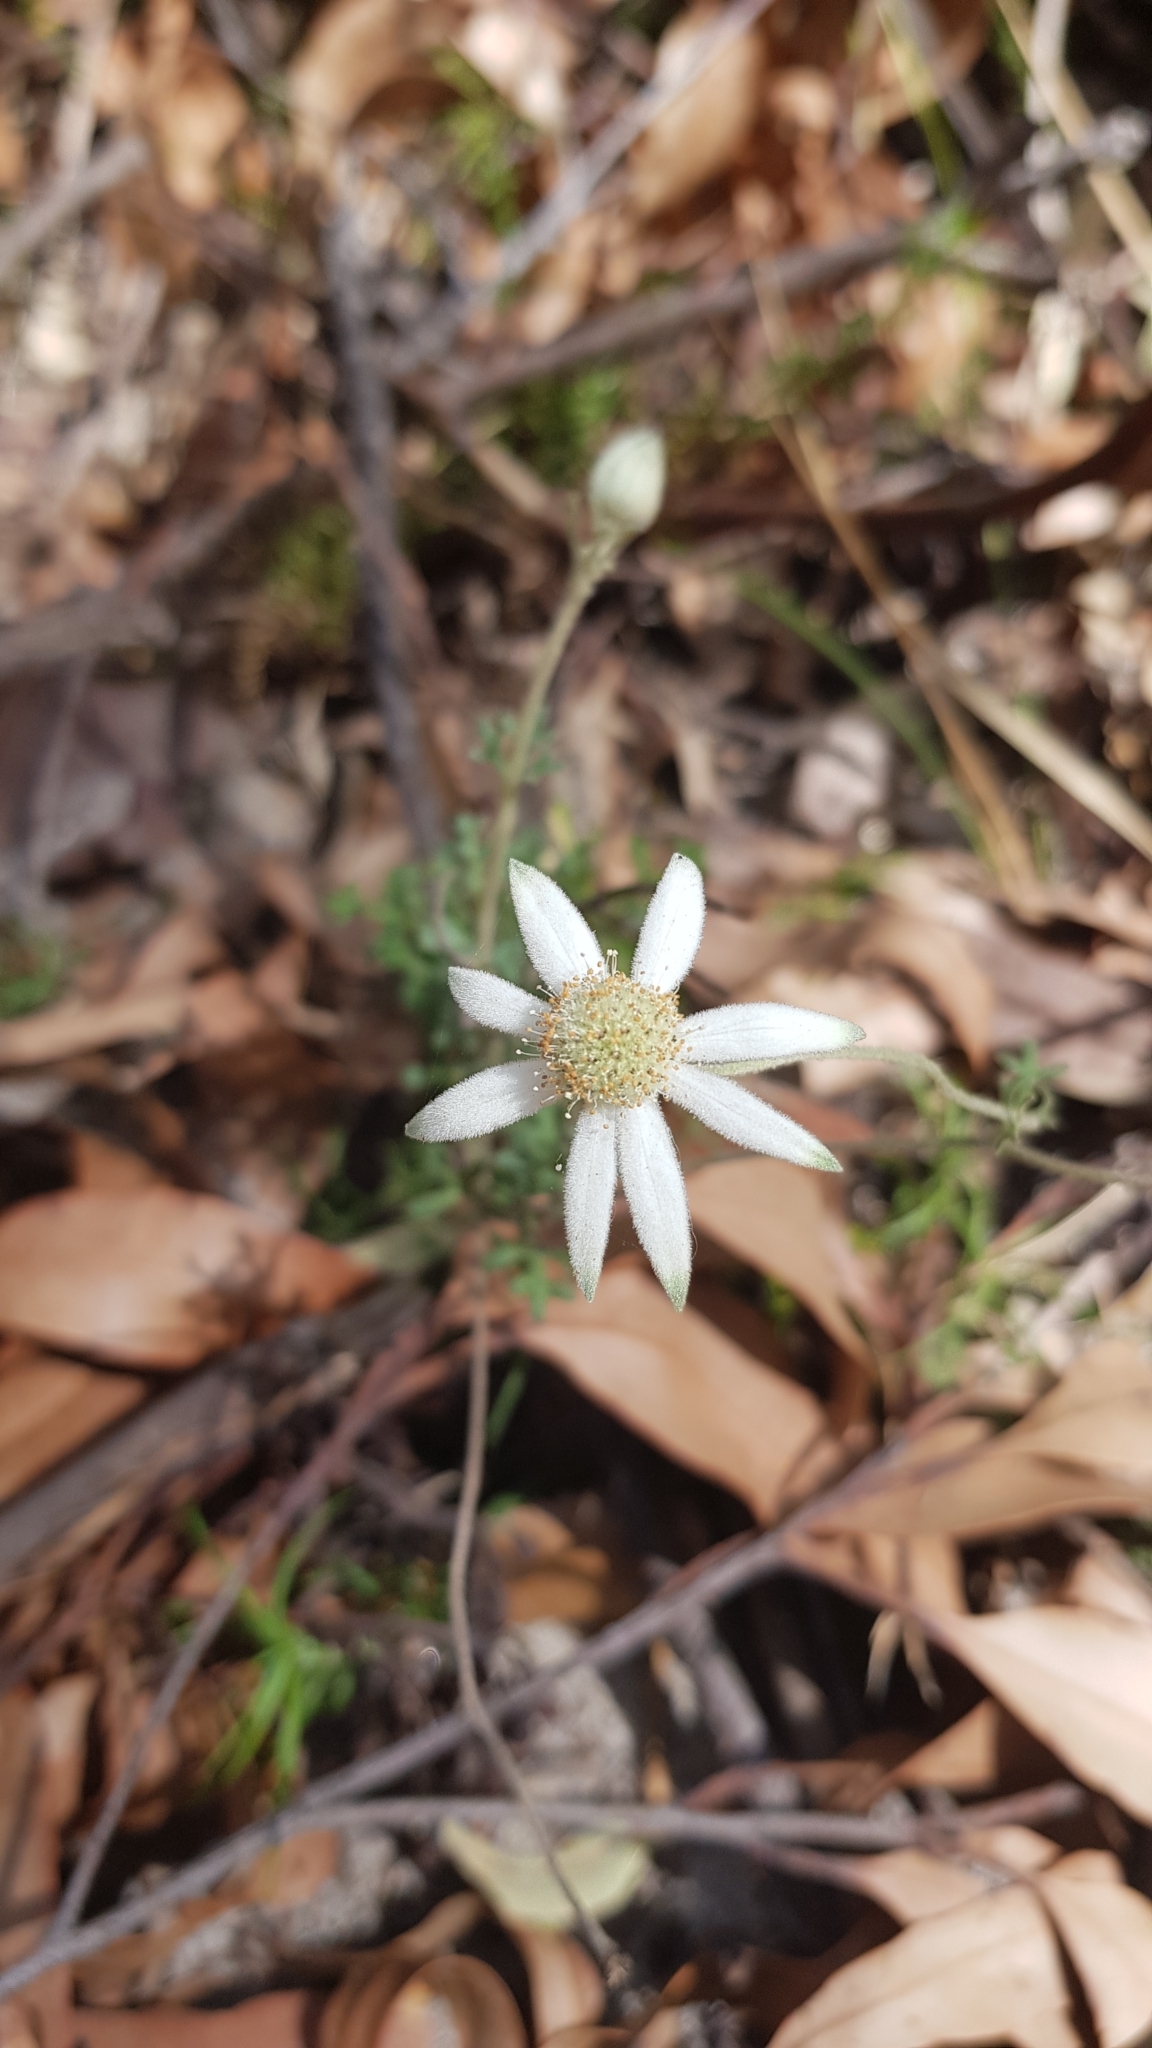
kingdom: Plantae
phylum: Tracheophyta
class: Magnoliopsida
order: Apiales
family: Apiaceae
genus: Actinotus
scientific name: Actinotus helianthi
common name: Flannel-flower
